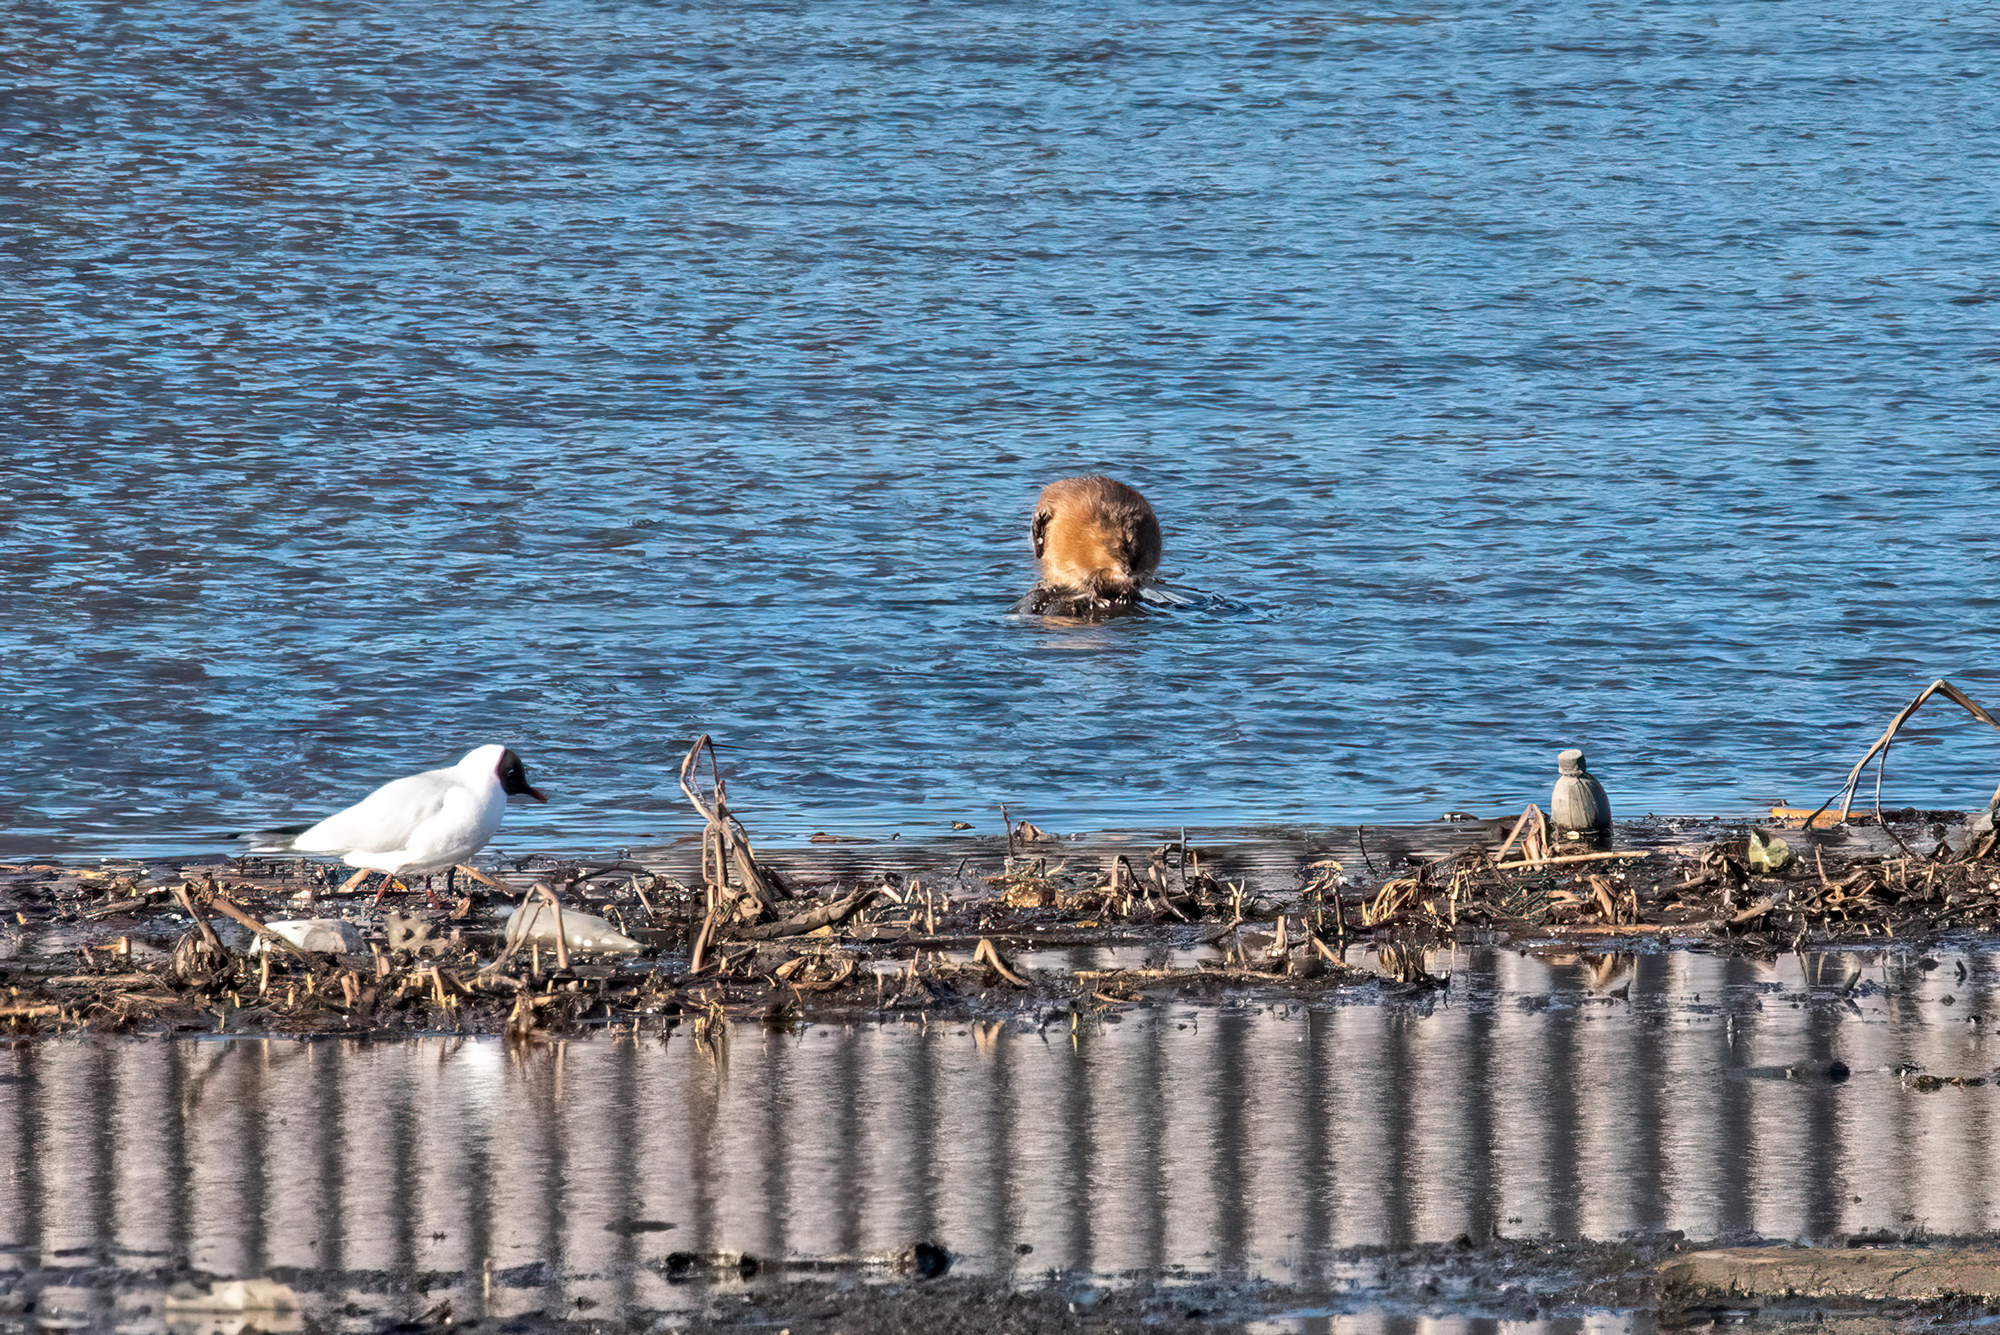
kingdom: Animalia
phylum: Chordata
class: Mammalia
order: Rodentia
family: Cricetidae
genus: Ondatra
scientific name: Ondatra zibethicus
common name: Muskrat
